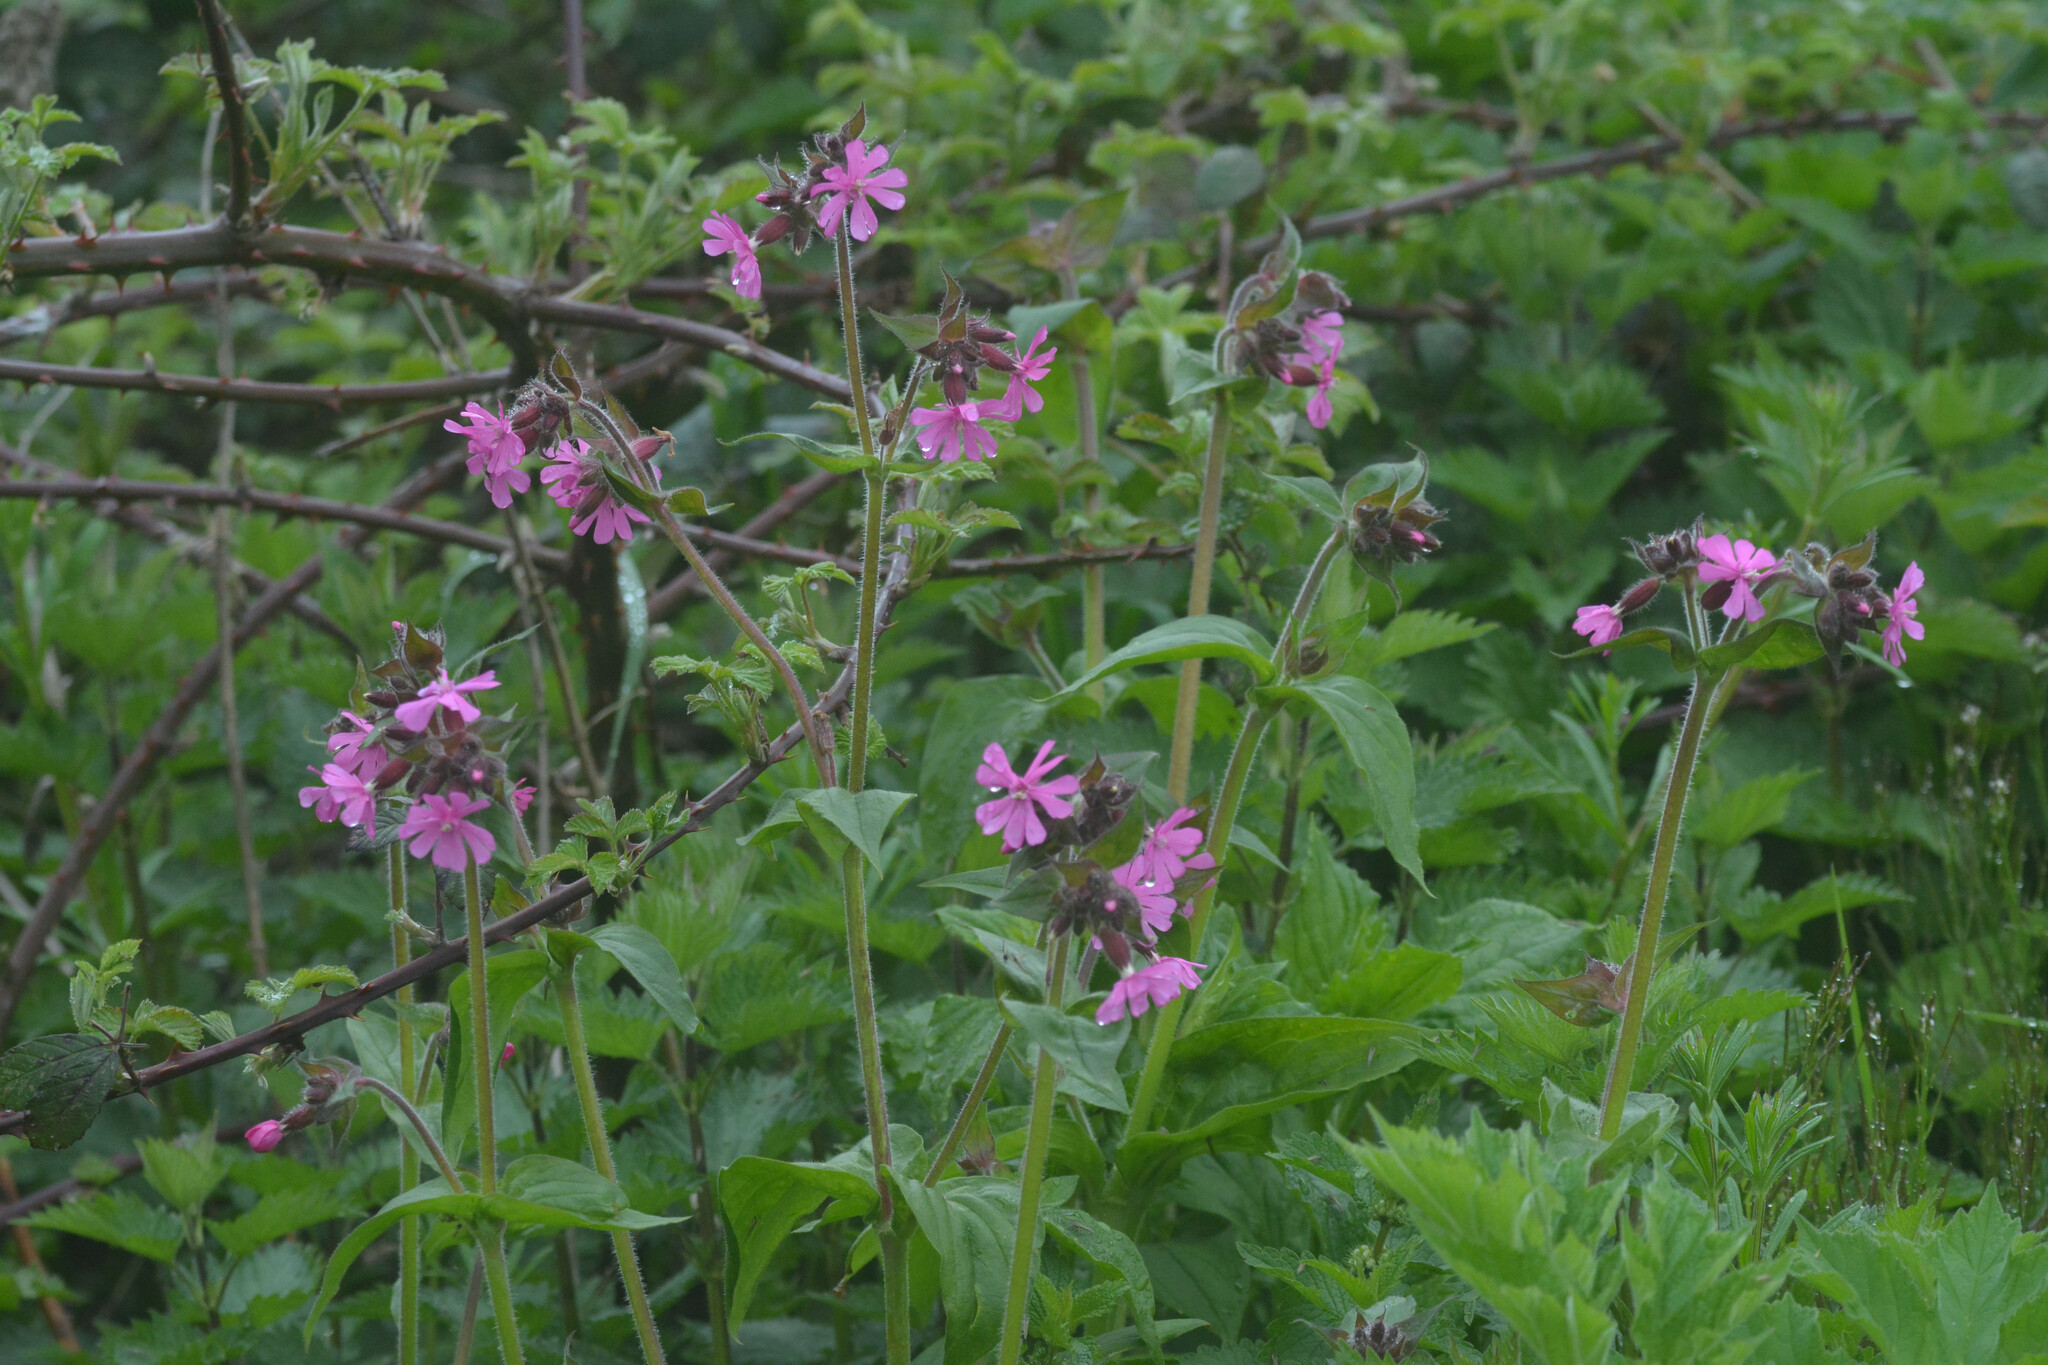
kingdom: Plantae
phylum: Tracheophyta
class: Magnoliopsida
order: Caryophyllales
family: Caryophyllaceae
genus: Silene
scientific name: Silene dioica
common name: Red campion
